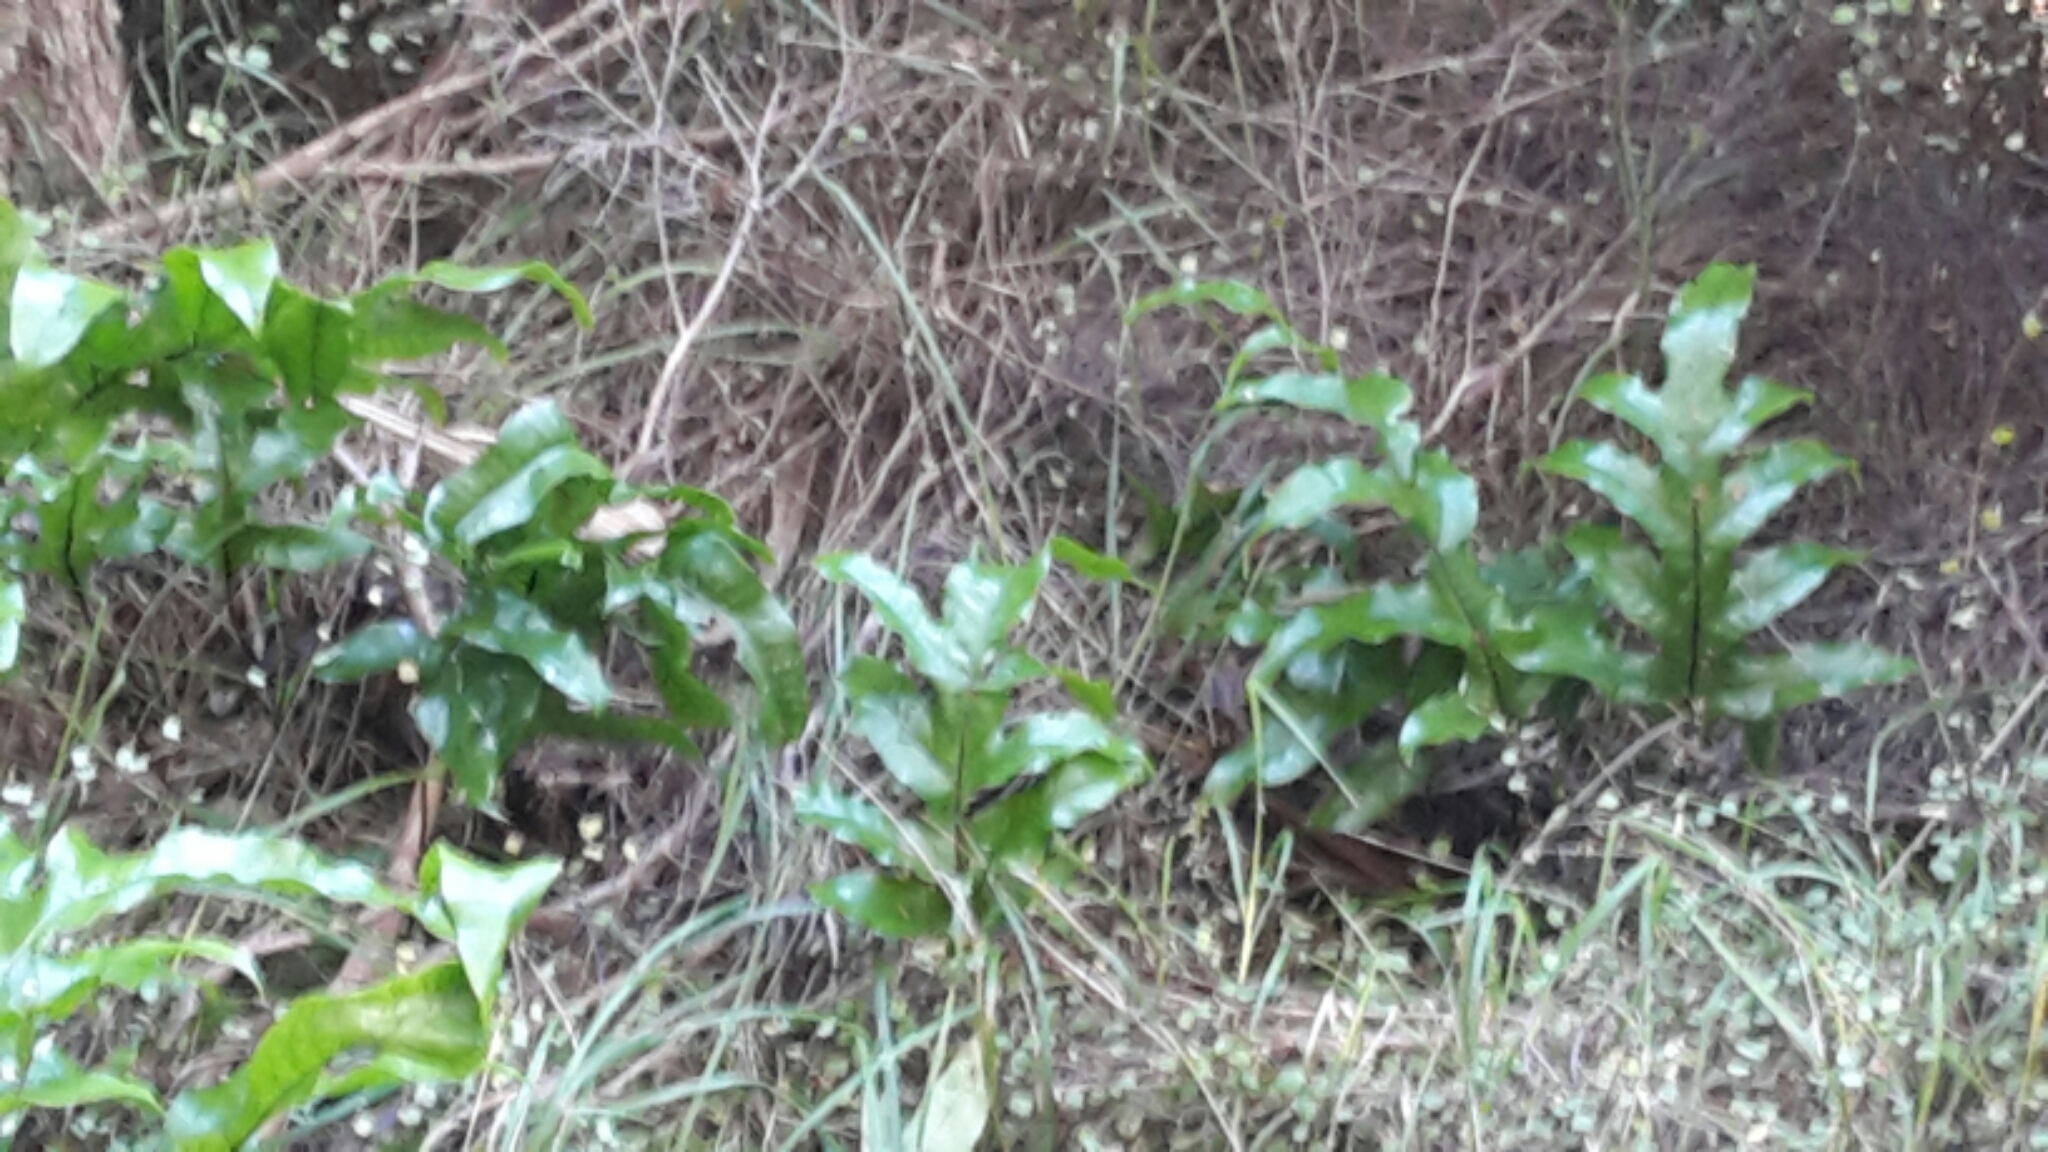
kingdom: Plantae
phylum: Tracheophyta
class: Polypodiopsida
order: Polypodiales
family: Polypodiaceae
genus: Lecanopteris
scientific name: Lecanopteris pustulata
